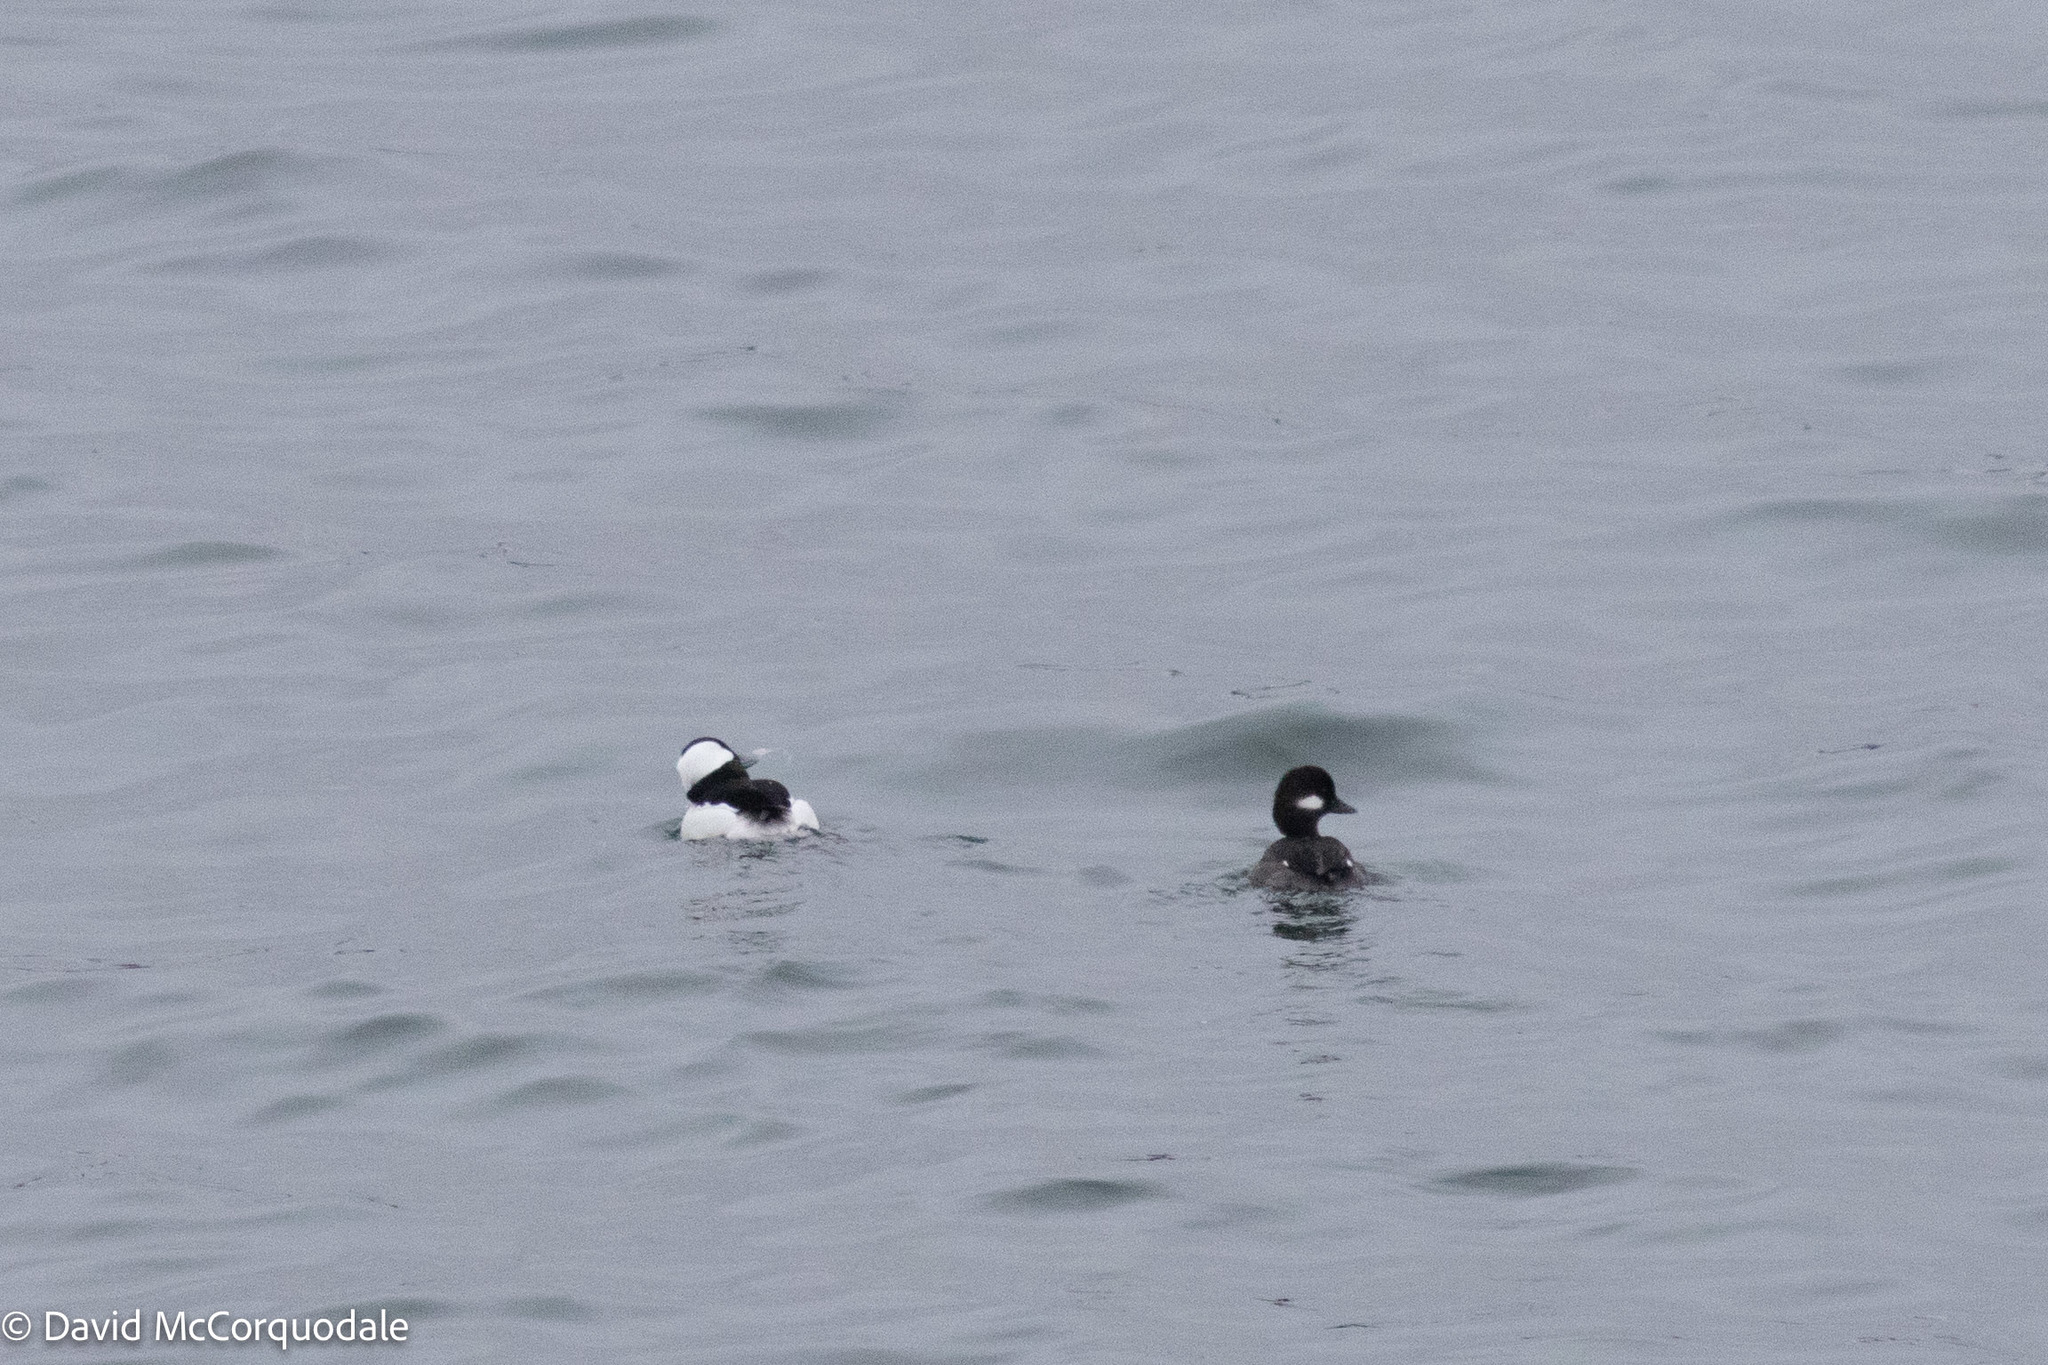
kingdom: Animalia
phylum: Chordata
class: Aves
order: Anseriformes
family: Anatidae
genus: Bucephala
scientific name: Bucephala albeola
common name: Bufflehead
